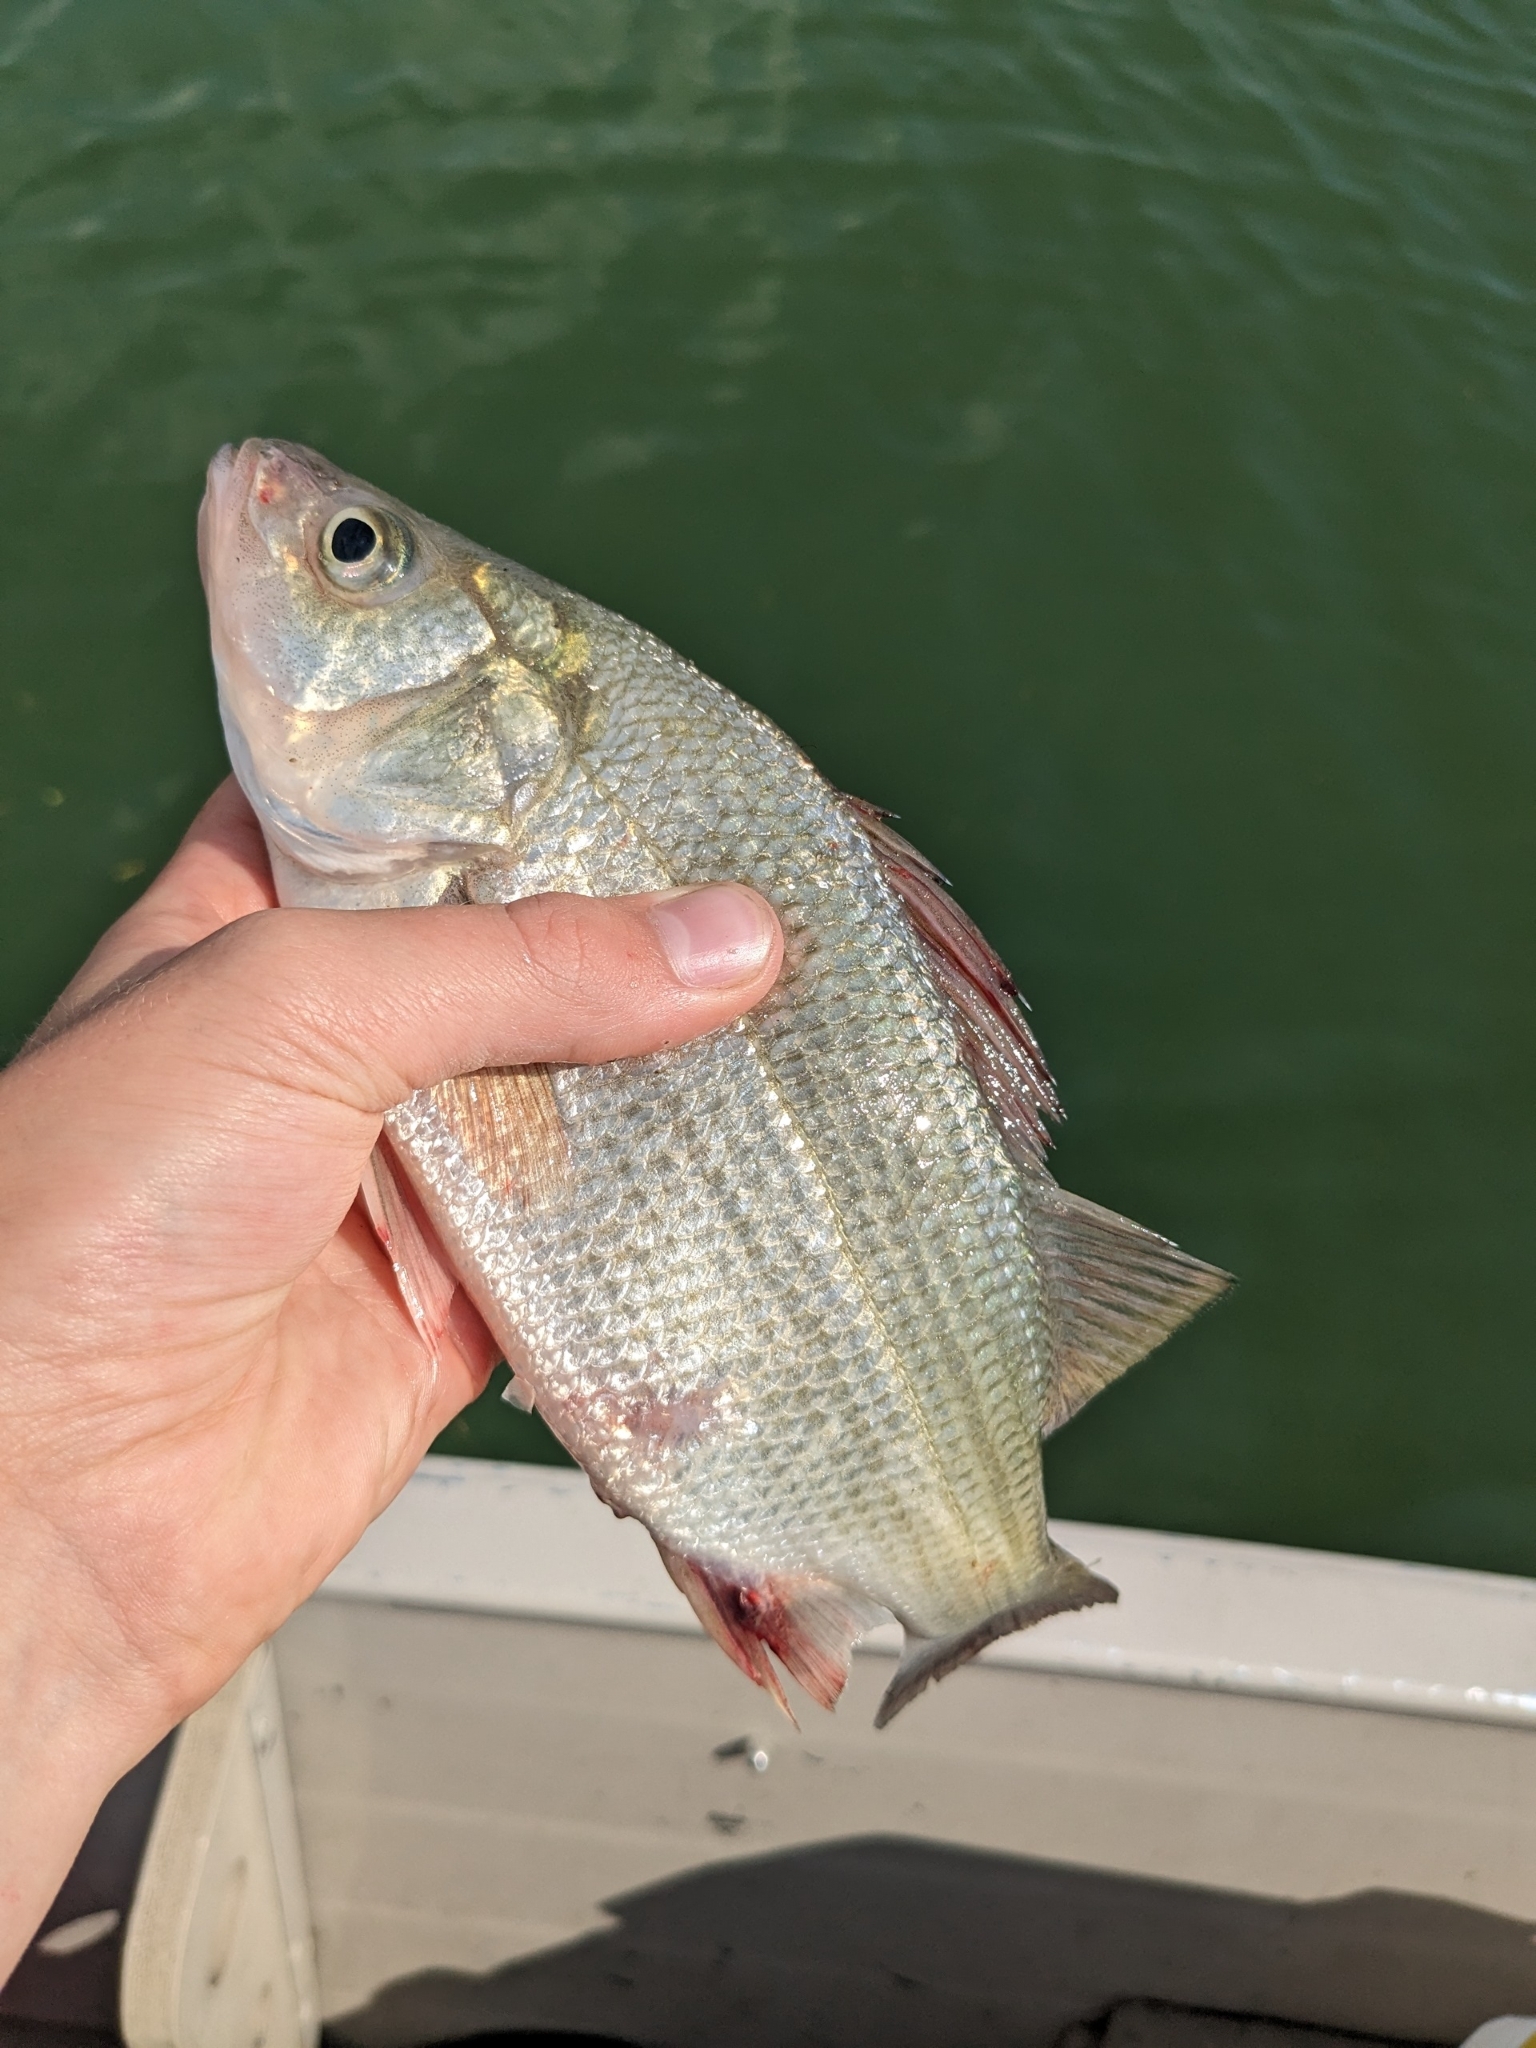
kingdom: Animalia
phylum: Chordata
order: Perciformes
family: Moronidae
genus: Morone
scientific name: Morone americana
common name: White perch
